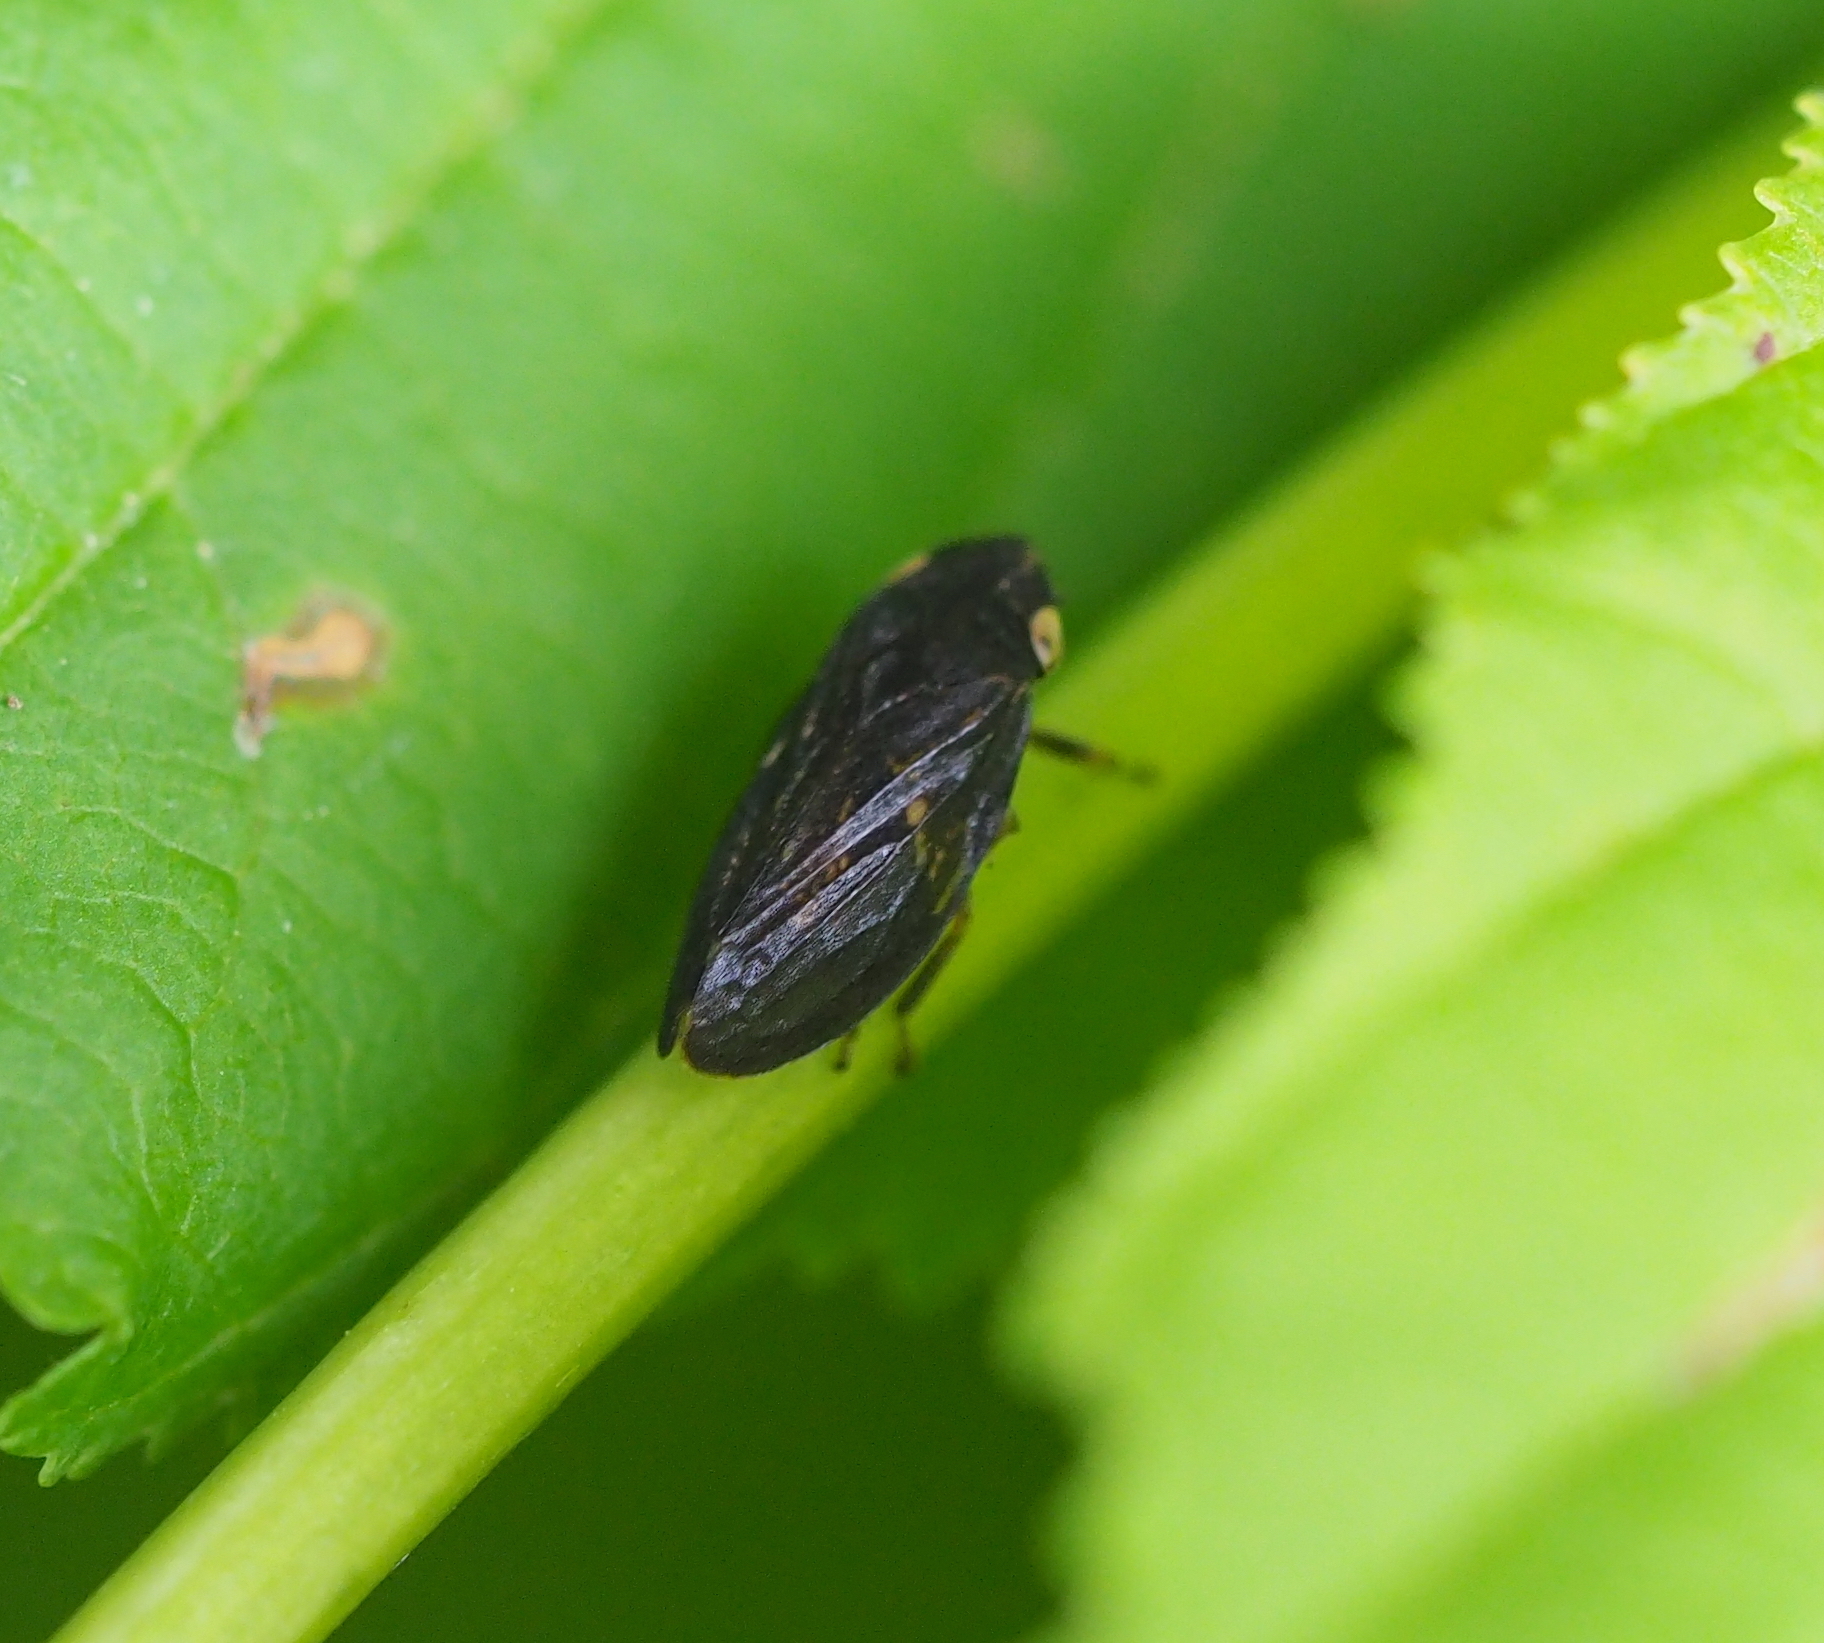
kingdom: Animalia
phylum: Arthropoda
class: Insecta
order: Hemiptera
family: Aphrophoridae
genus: Philaenus
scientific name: Philaenus spumarius
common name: Meadow spittlebug
